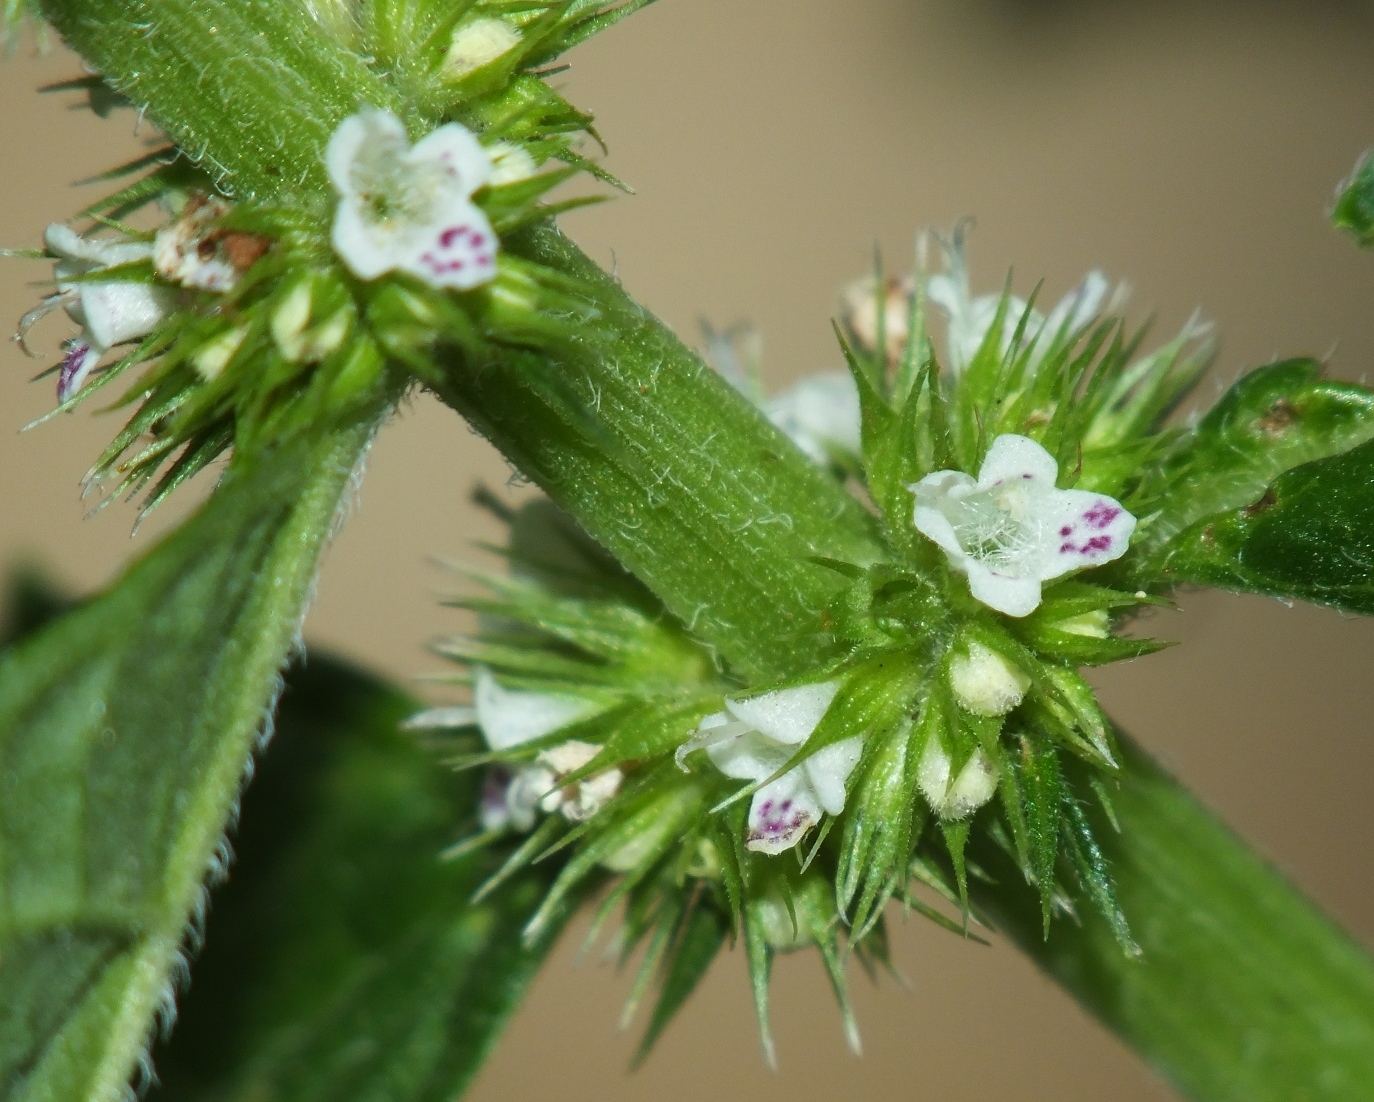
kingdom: Plantae
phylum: Tracheophyta
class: Magnoliopsida
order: Lamiales
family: Lamiaceae
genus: Lycopus
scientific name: Lycopus europaeus
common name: European bugleweed
